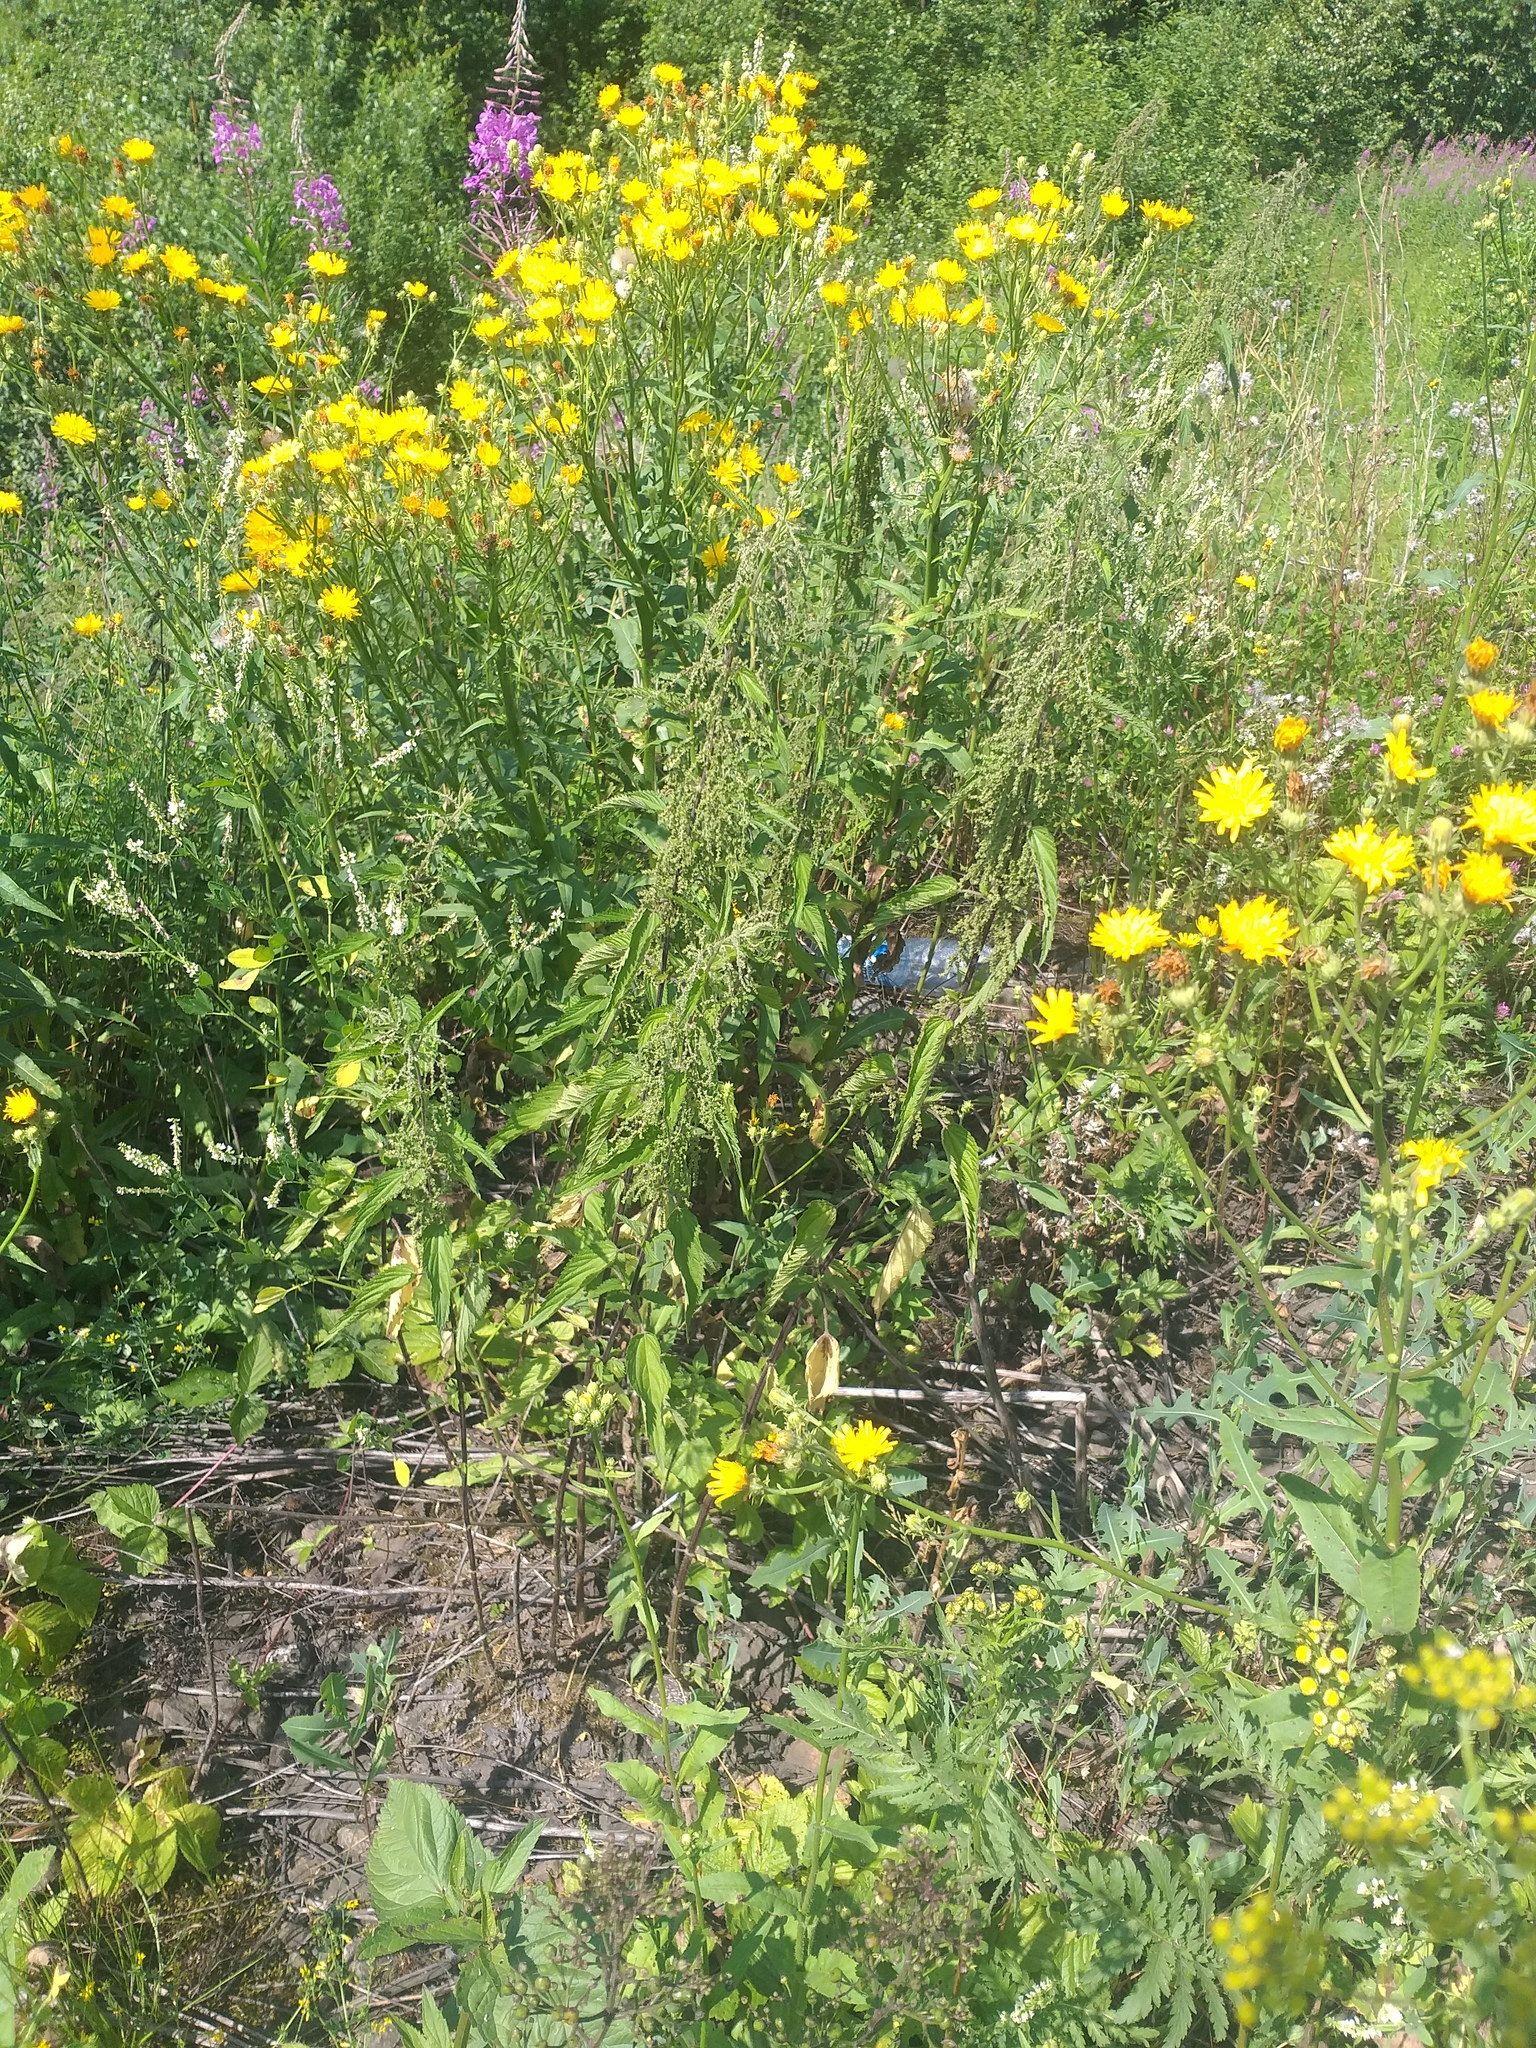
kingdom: Plantae
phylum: Tracheophyta
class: Magnoliopsida
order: Rosales
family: Urticaceae
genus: Urtica
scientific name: Urtica dioica
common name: Common nettle
